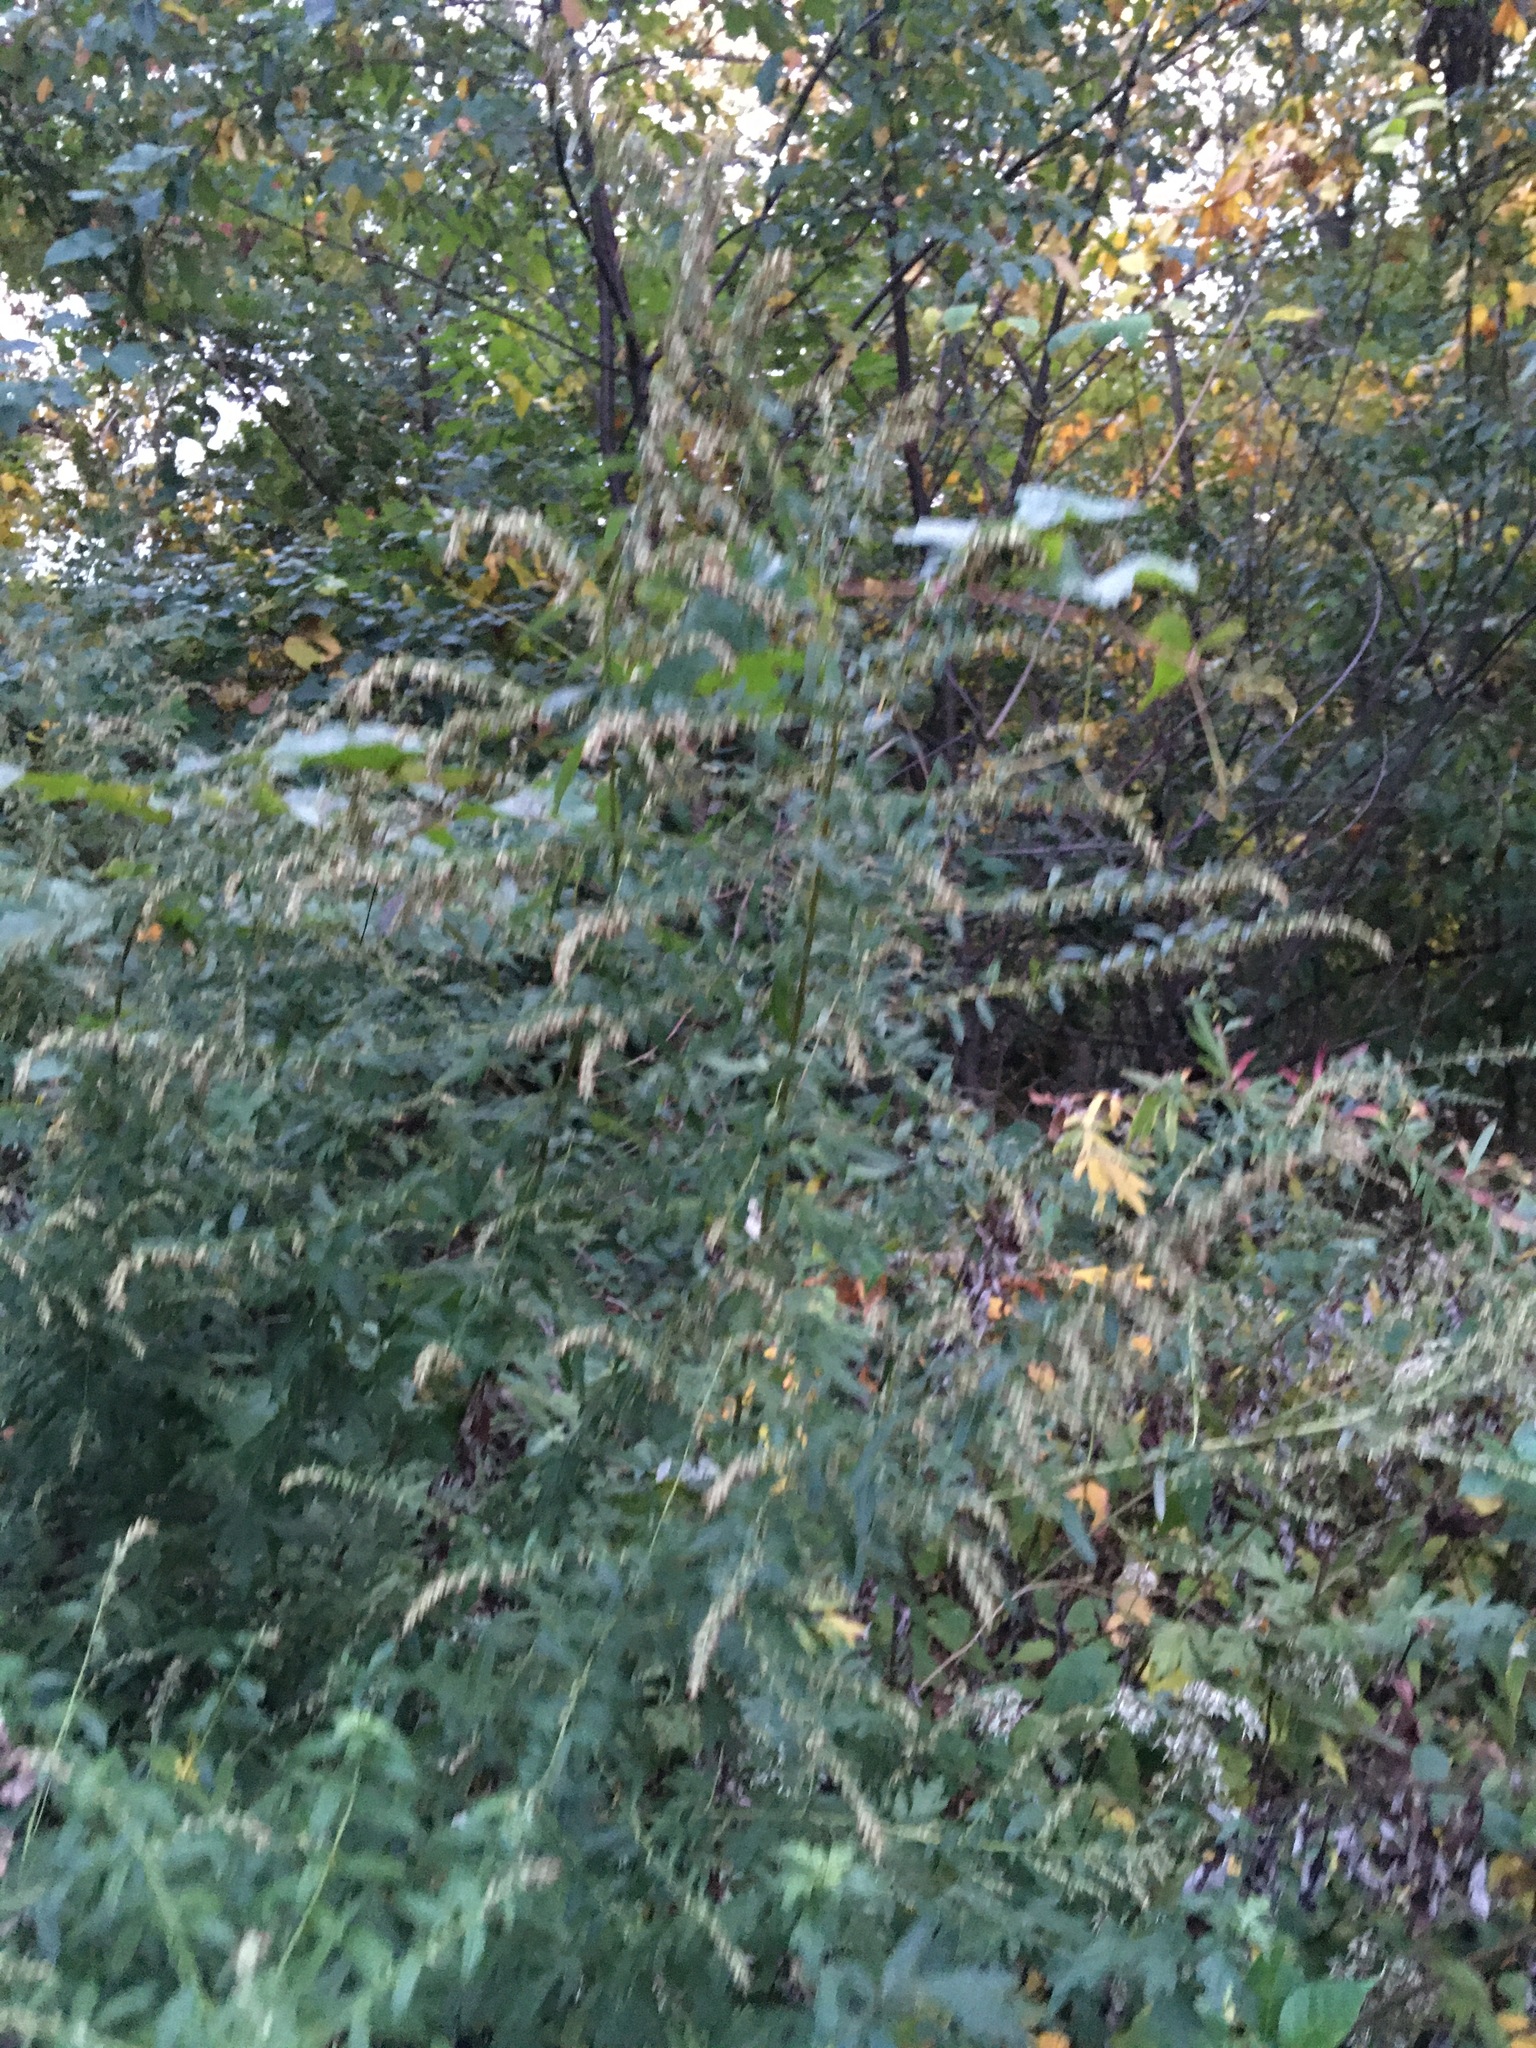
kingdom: Plantae
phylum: Tracheophyta
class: Magnoliopsida
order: Asterales
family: Asteraceae
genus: Artemisia
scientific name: Artemisia vulgaris
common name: Mugwort
